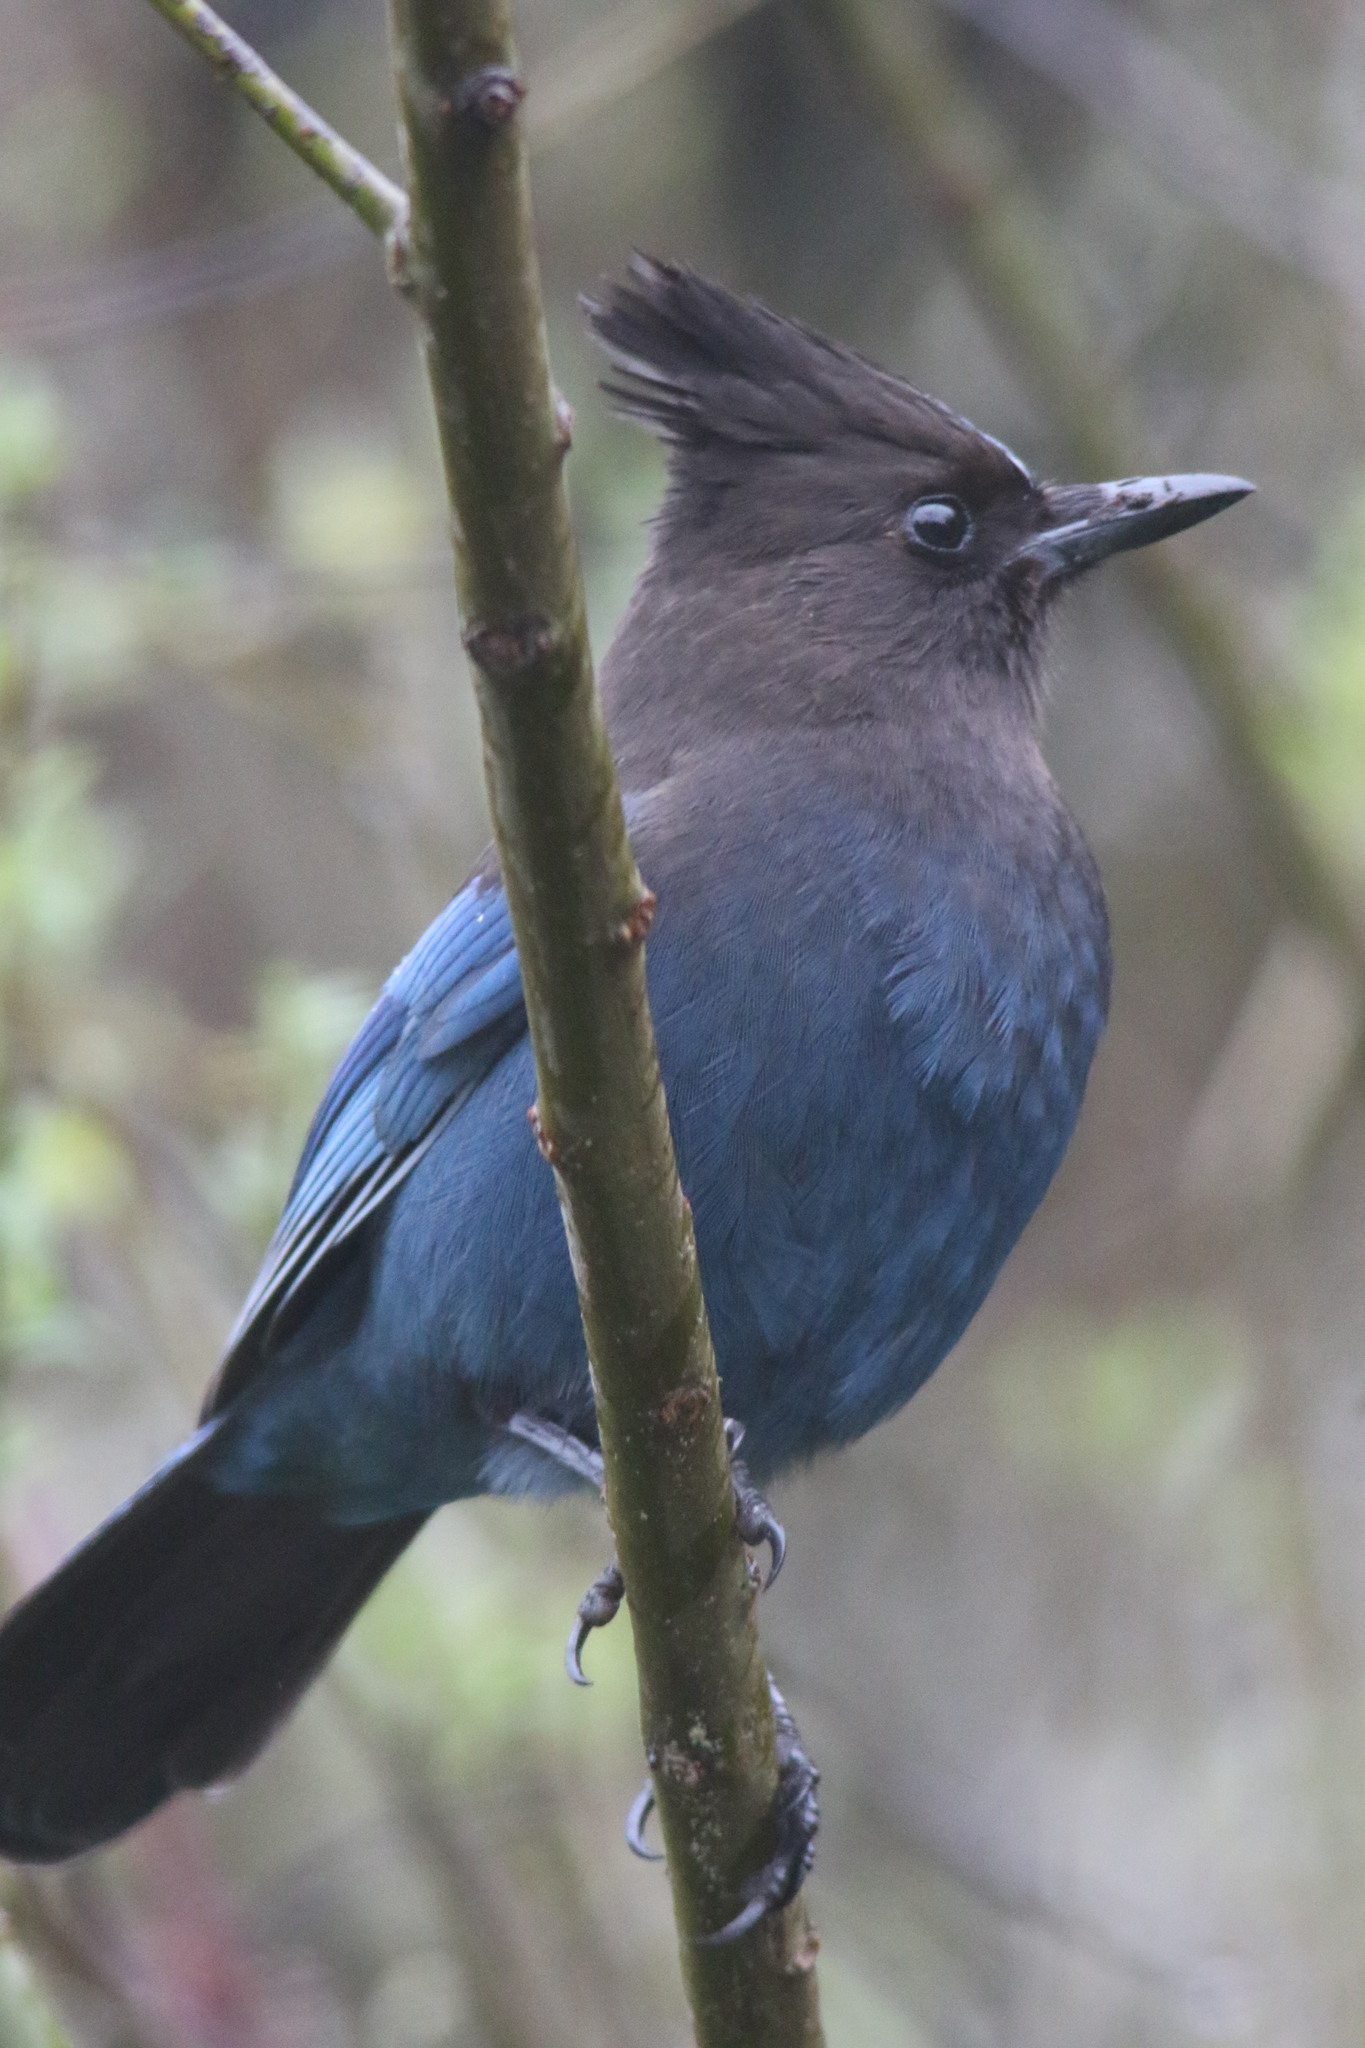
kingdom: Animalia
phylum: Chordata
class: Aves
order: Passeriformes
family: Corvidae
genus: Cyanocitta
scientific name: Cyanocitta stelleri
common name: Steller's jay
